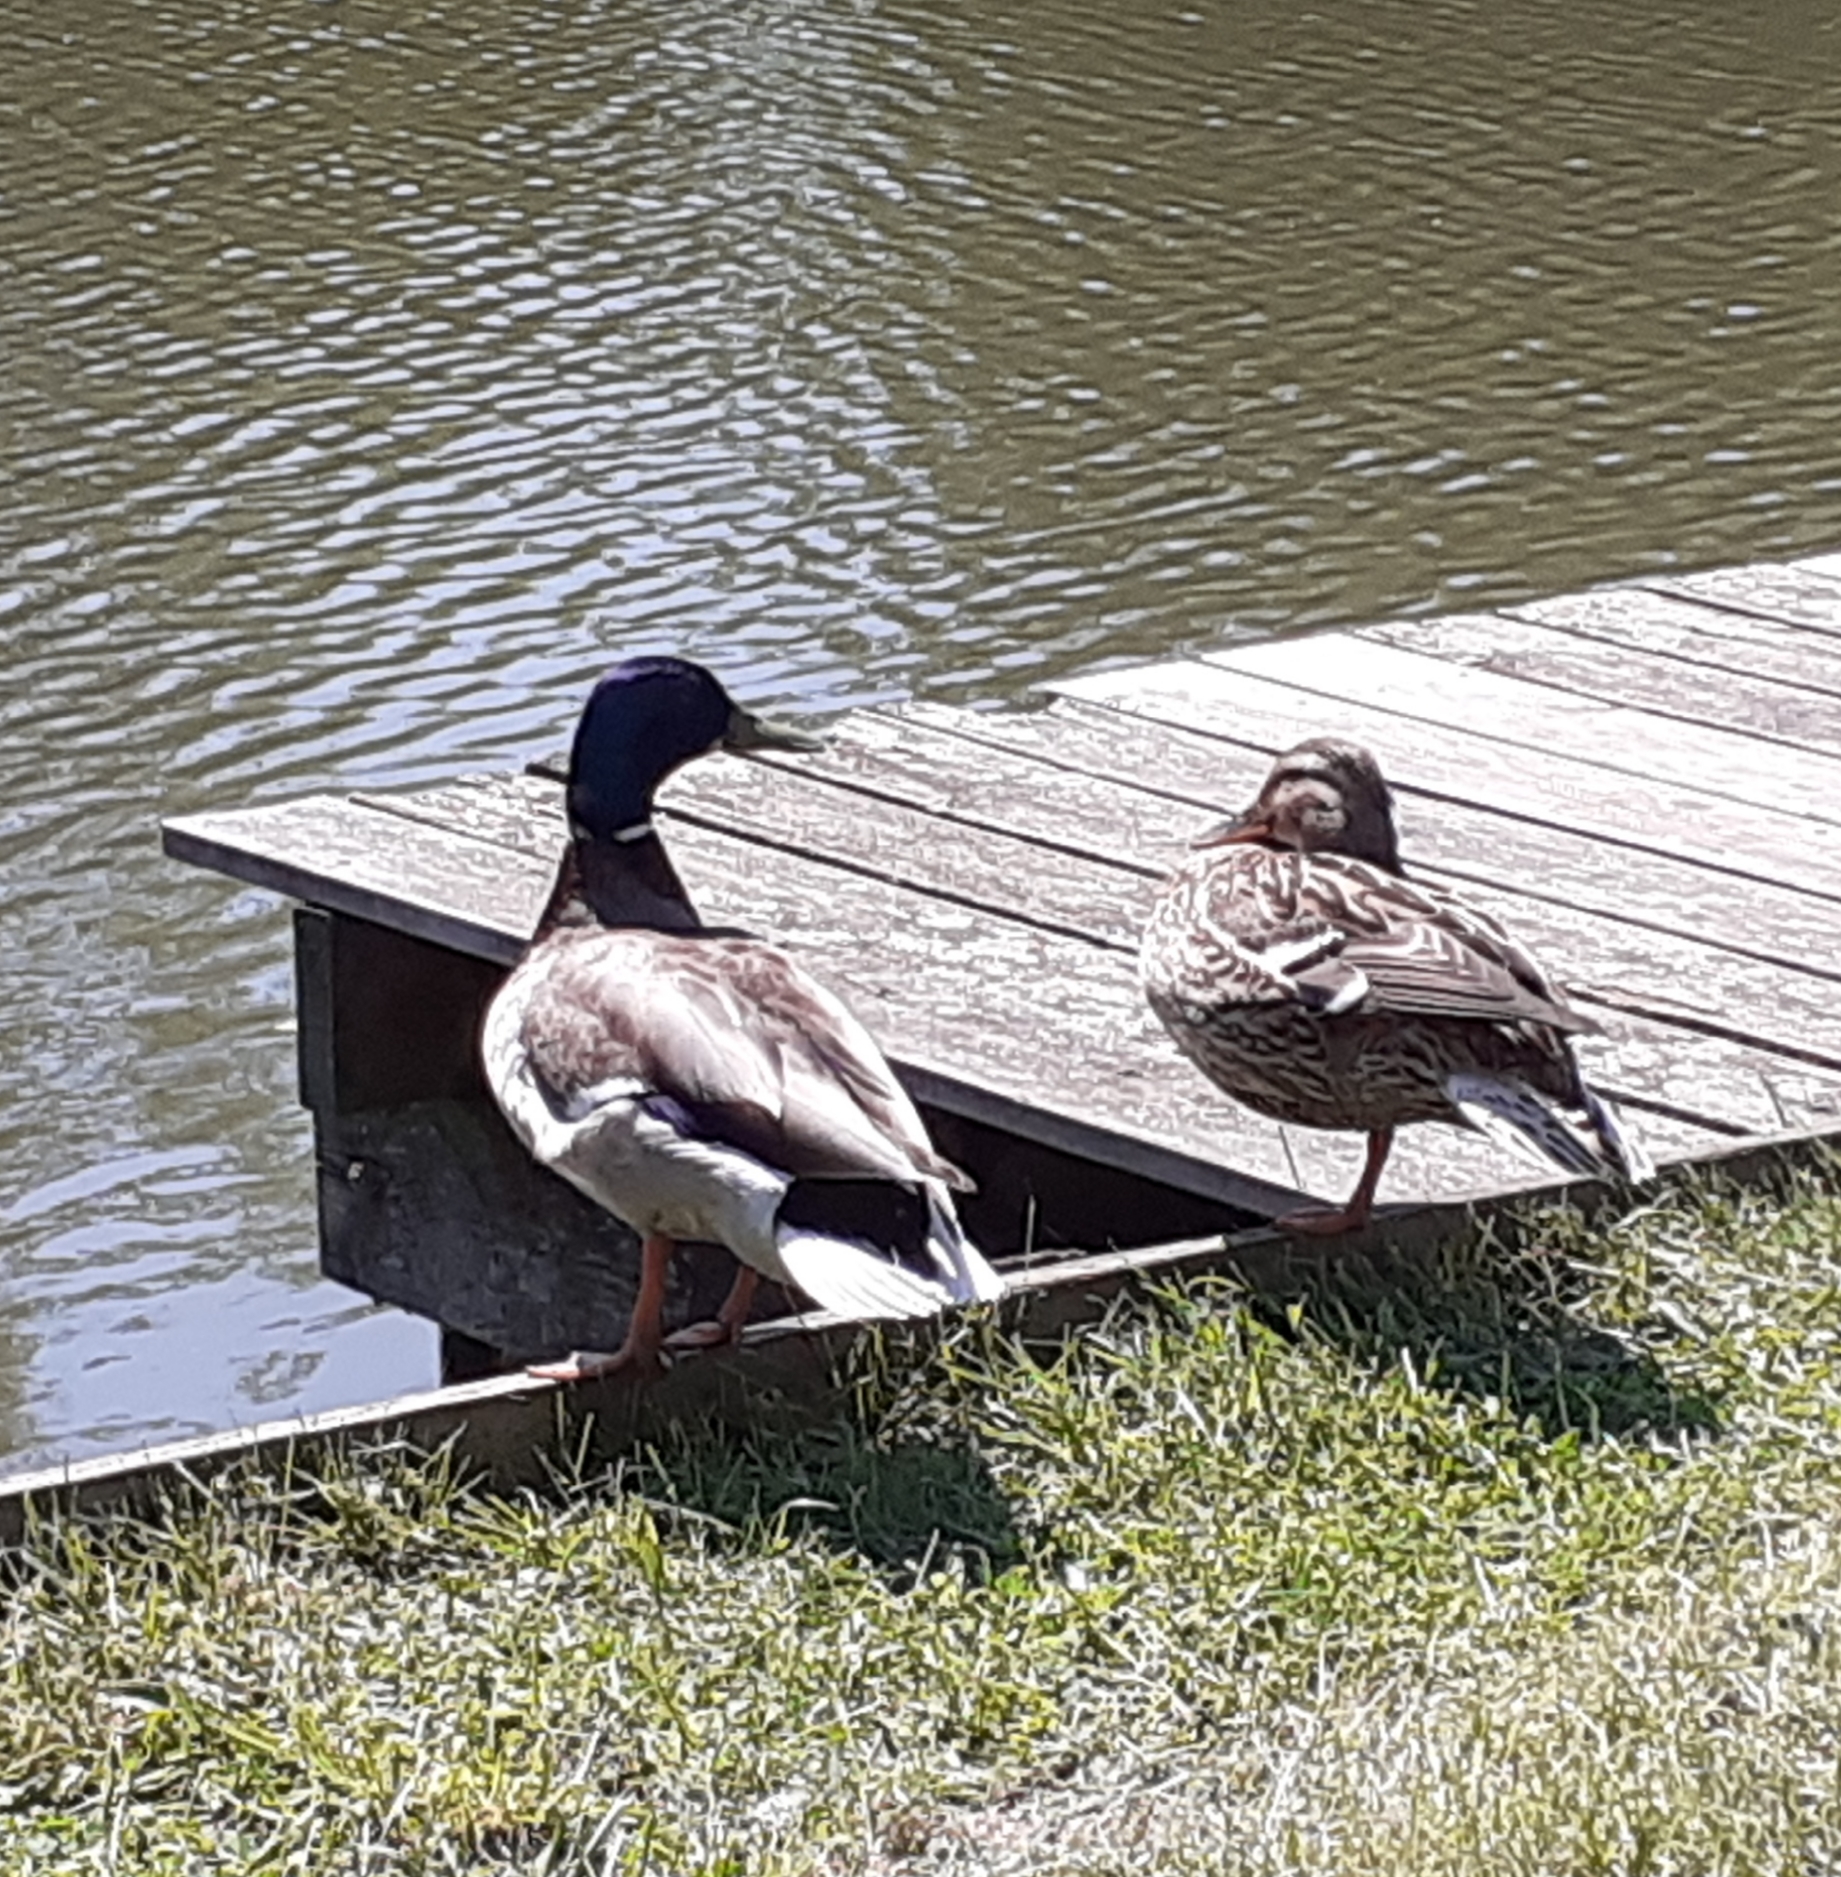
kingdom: Animalia
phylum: Chordata
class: Aves
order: Anseriformes
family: Anatidae
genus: Anas
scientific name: Anas platyrhynchos
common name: Mallard
